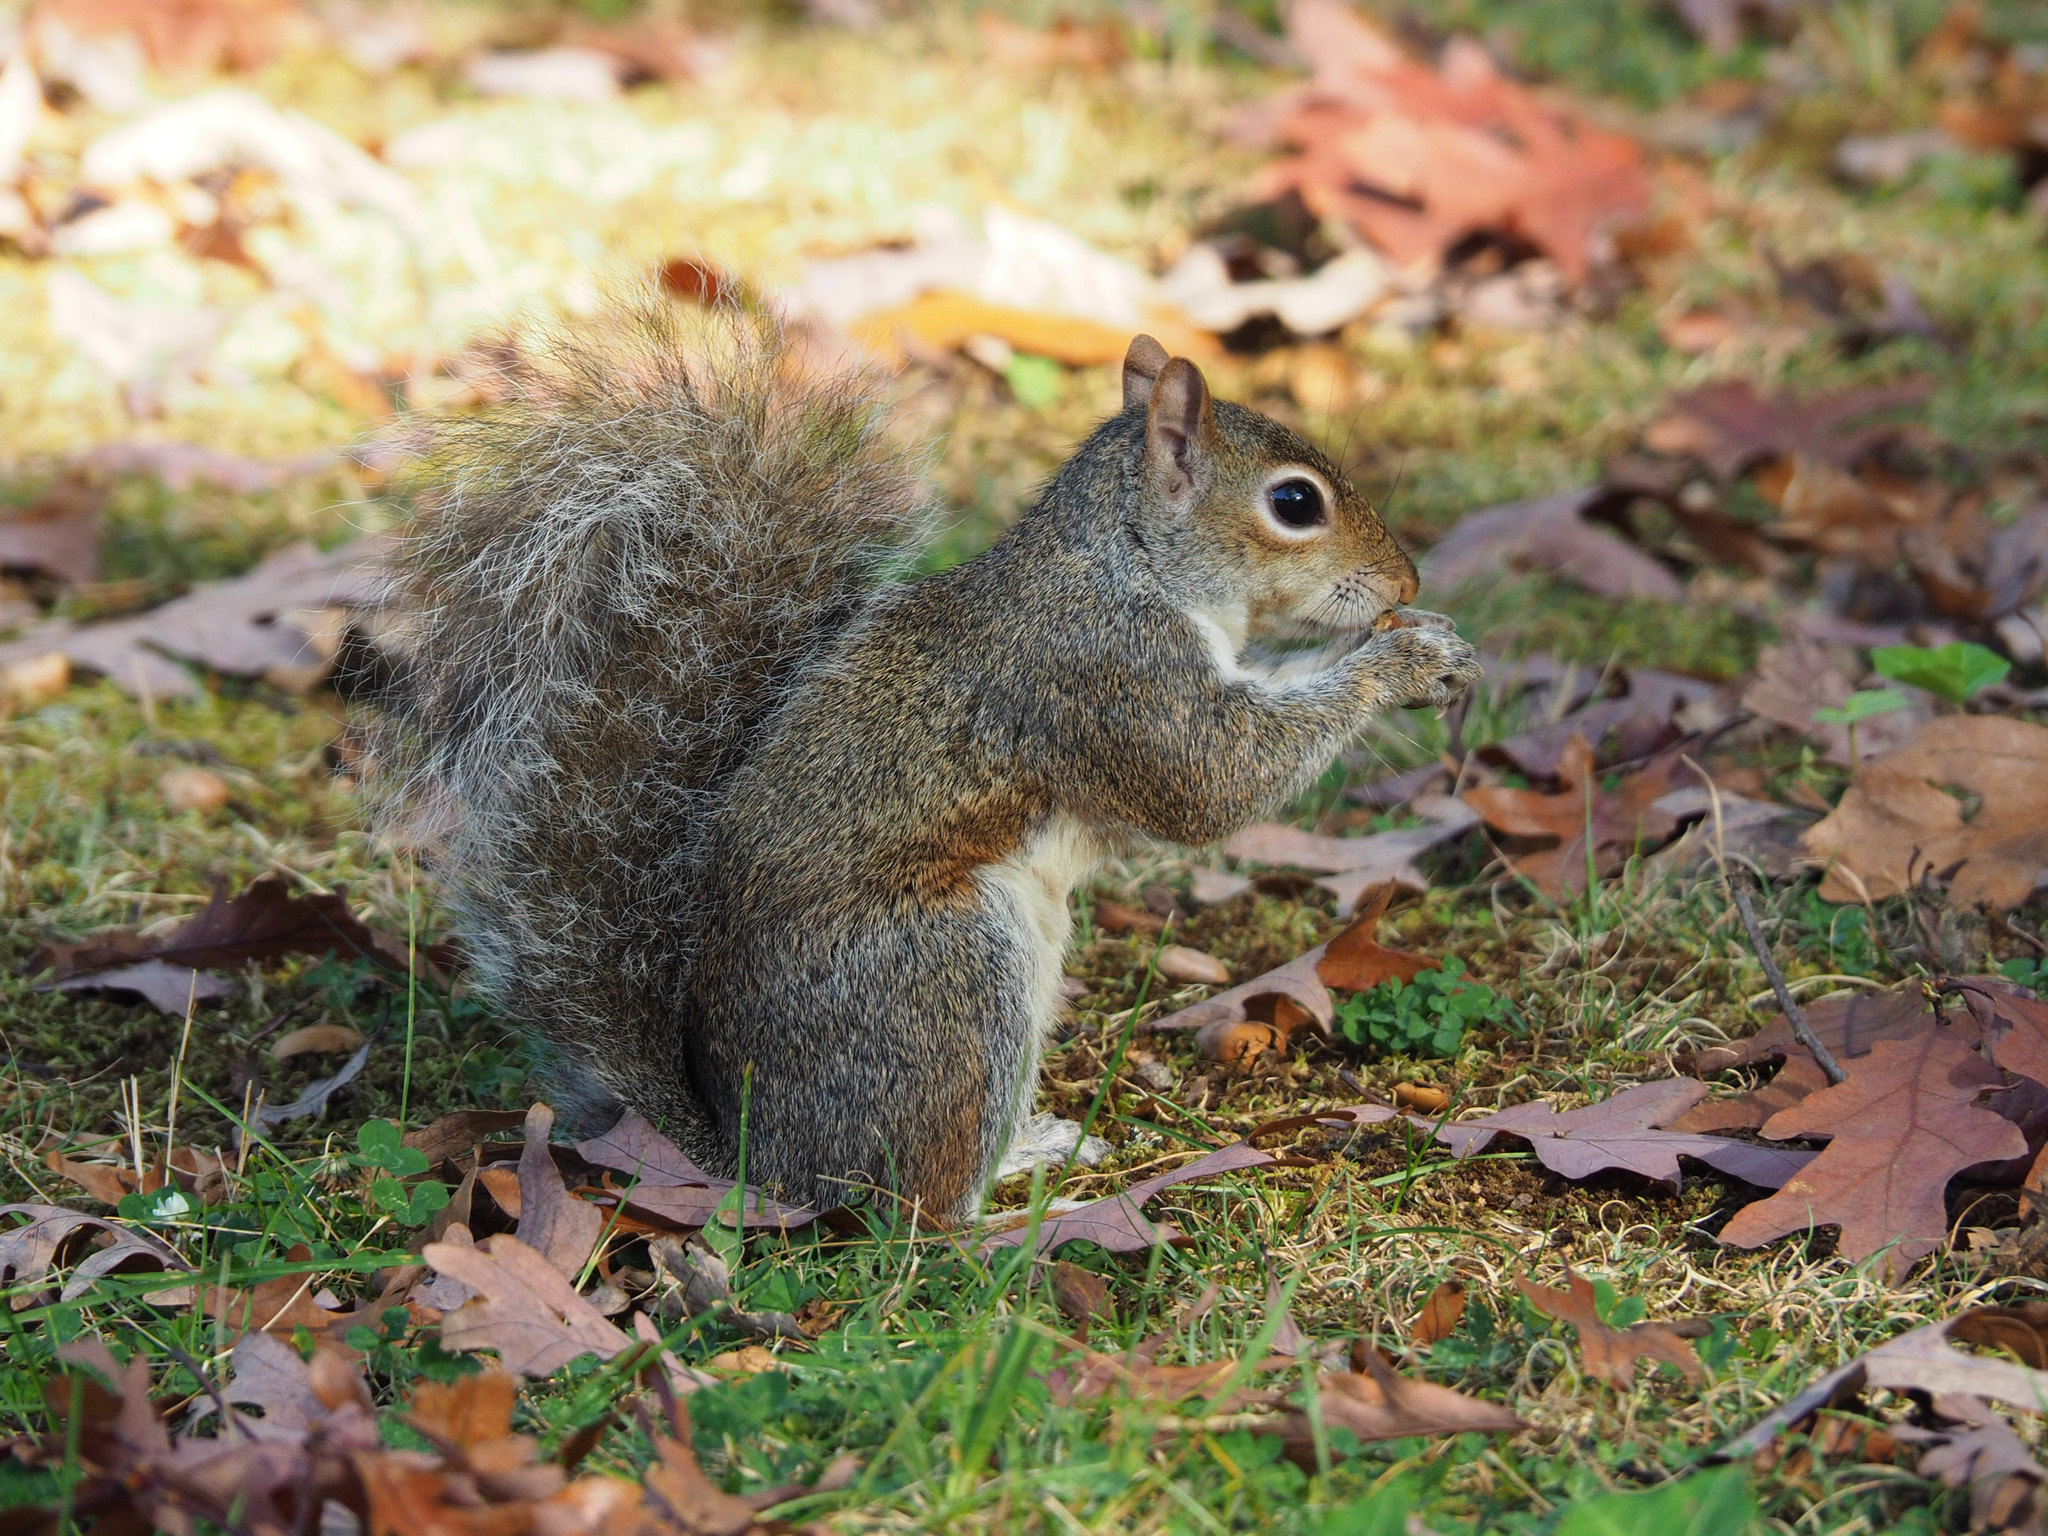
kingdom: Animalia
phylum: Chordata
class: Mammalia
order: Rodentia
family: Sciuridae
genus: Sciurus
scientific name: Sciurus carolinensis
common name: Eastern gray squirrel
